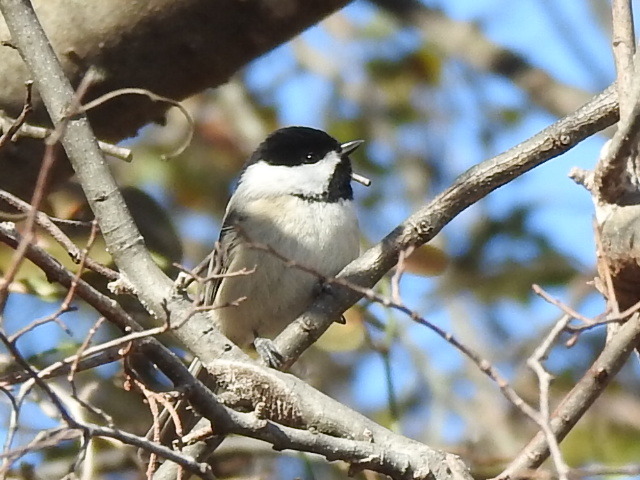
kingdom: Animalia
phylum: Chordata
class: Aves
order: Passeriformes
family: Paridae
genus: Poecile
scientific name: Poecile carolinensis
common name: Carolina chickadee
